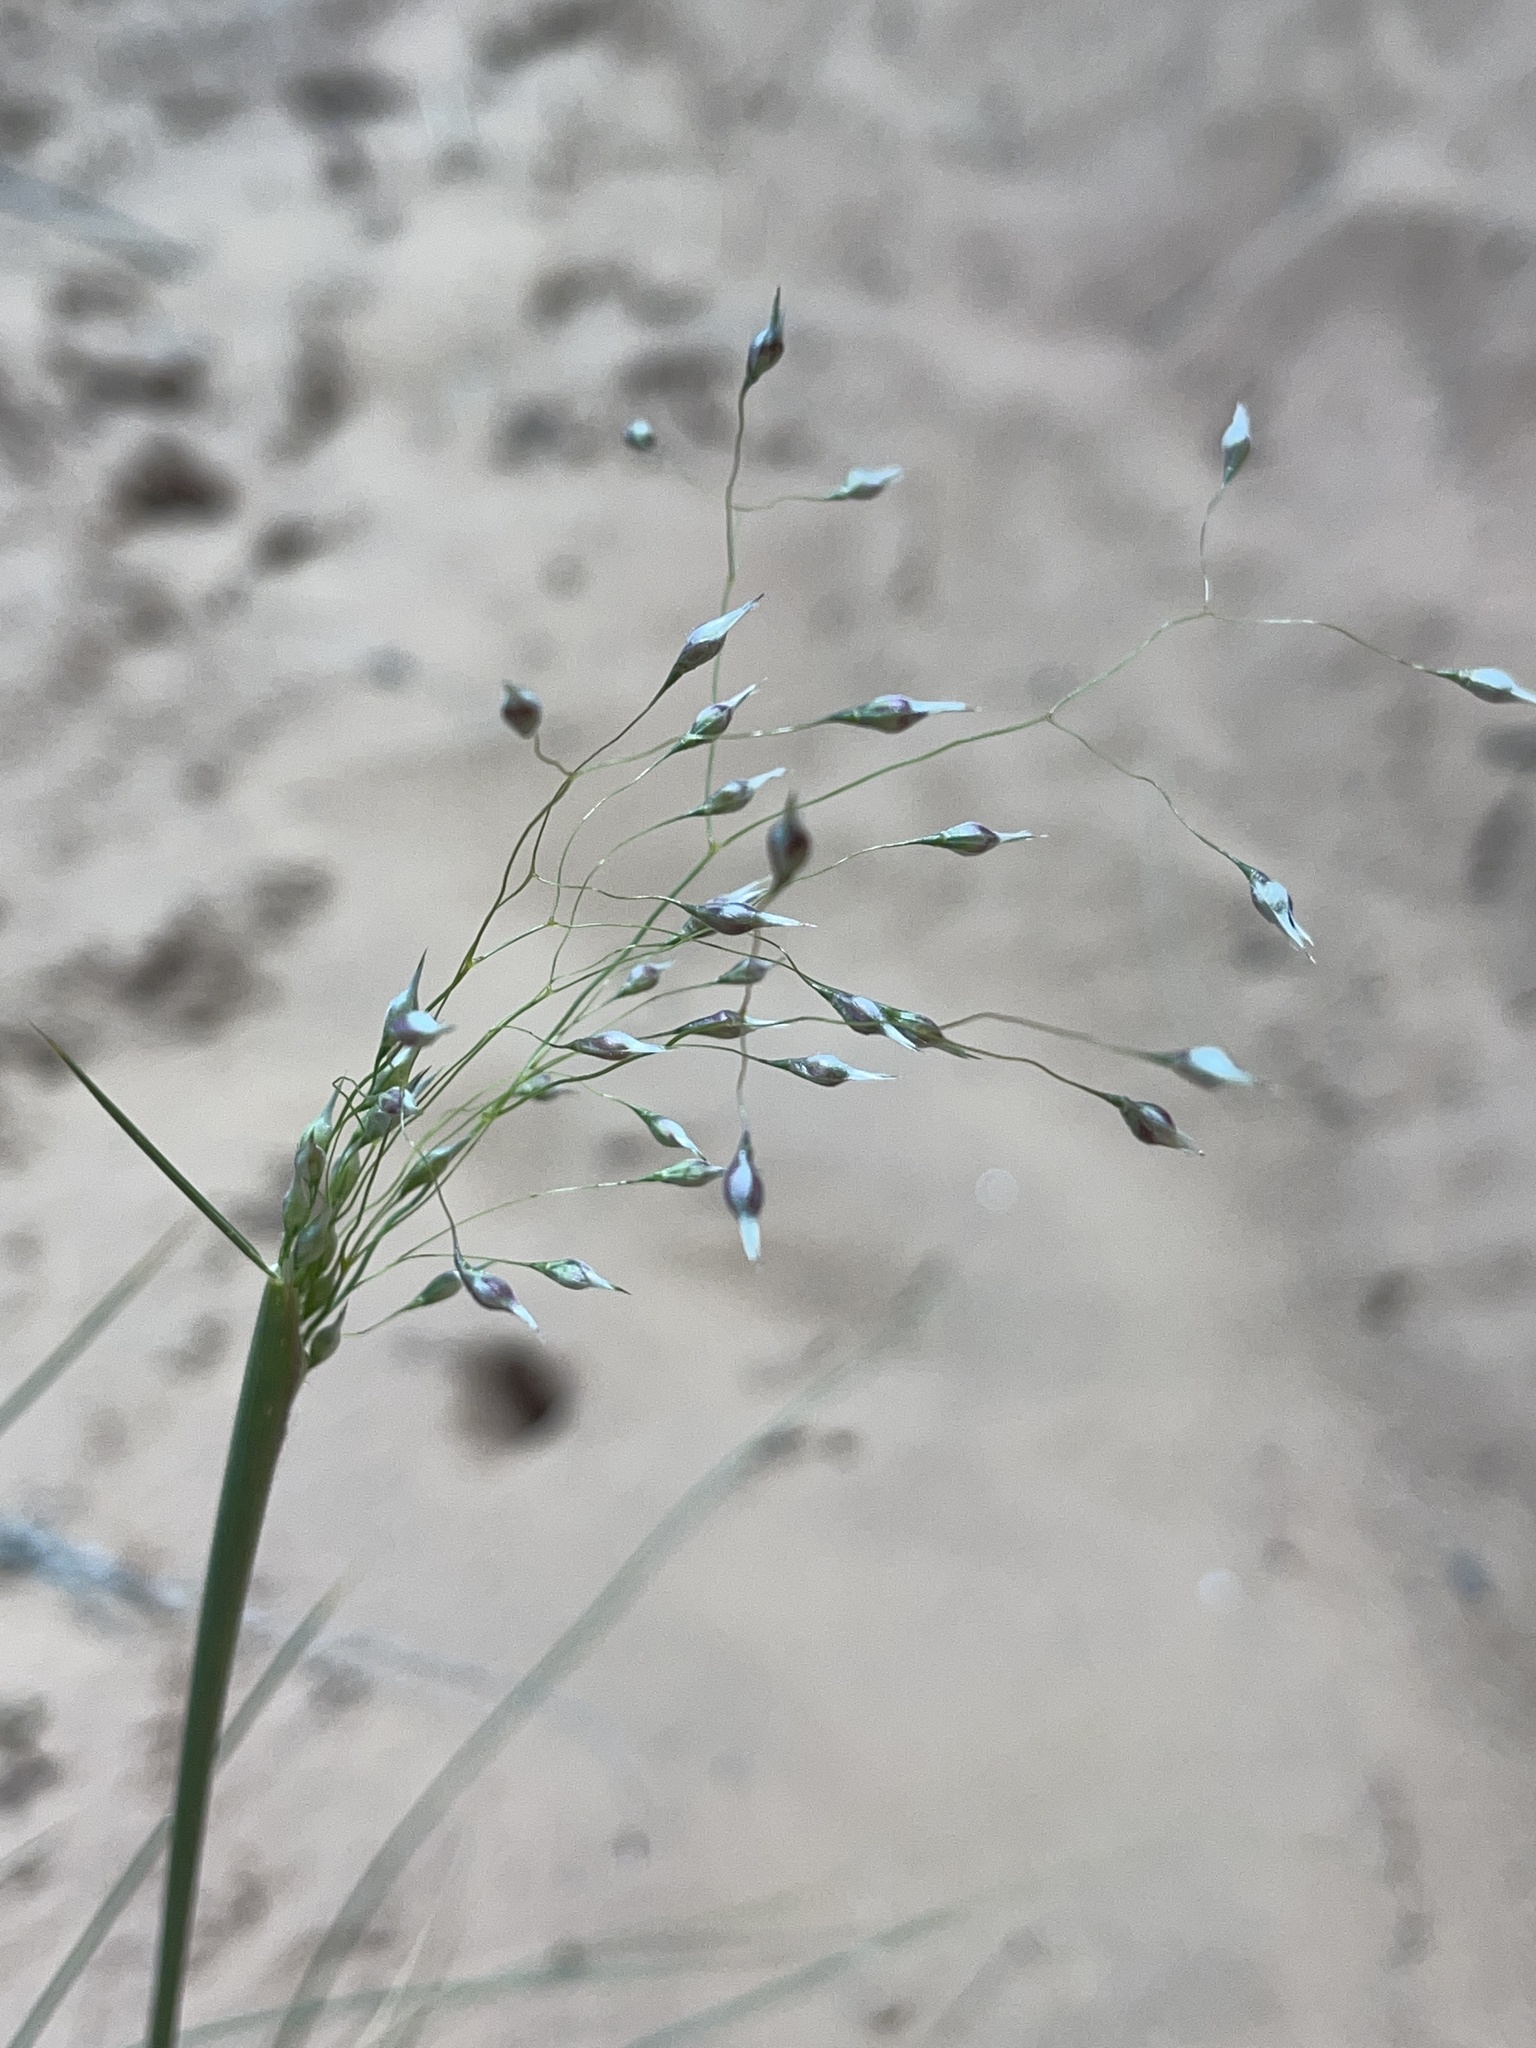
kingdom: Plantae
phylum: Tracheophyta
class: Liliopsida
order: Poales
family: Poaceae
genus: Eriocoma
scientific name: Eriocoma hymenoides
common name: Indian mountain ricegrass
